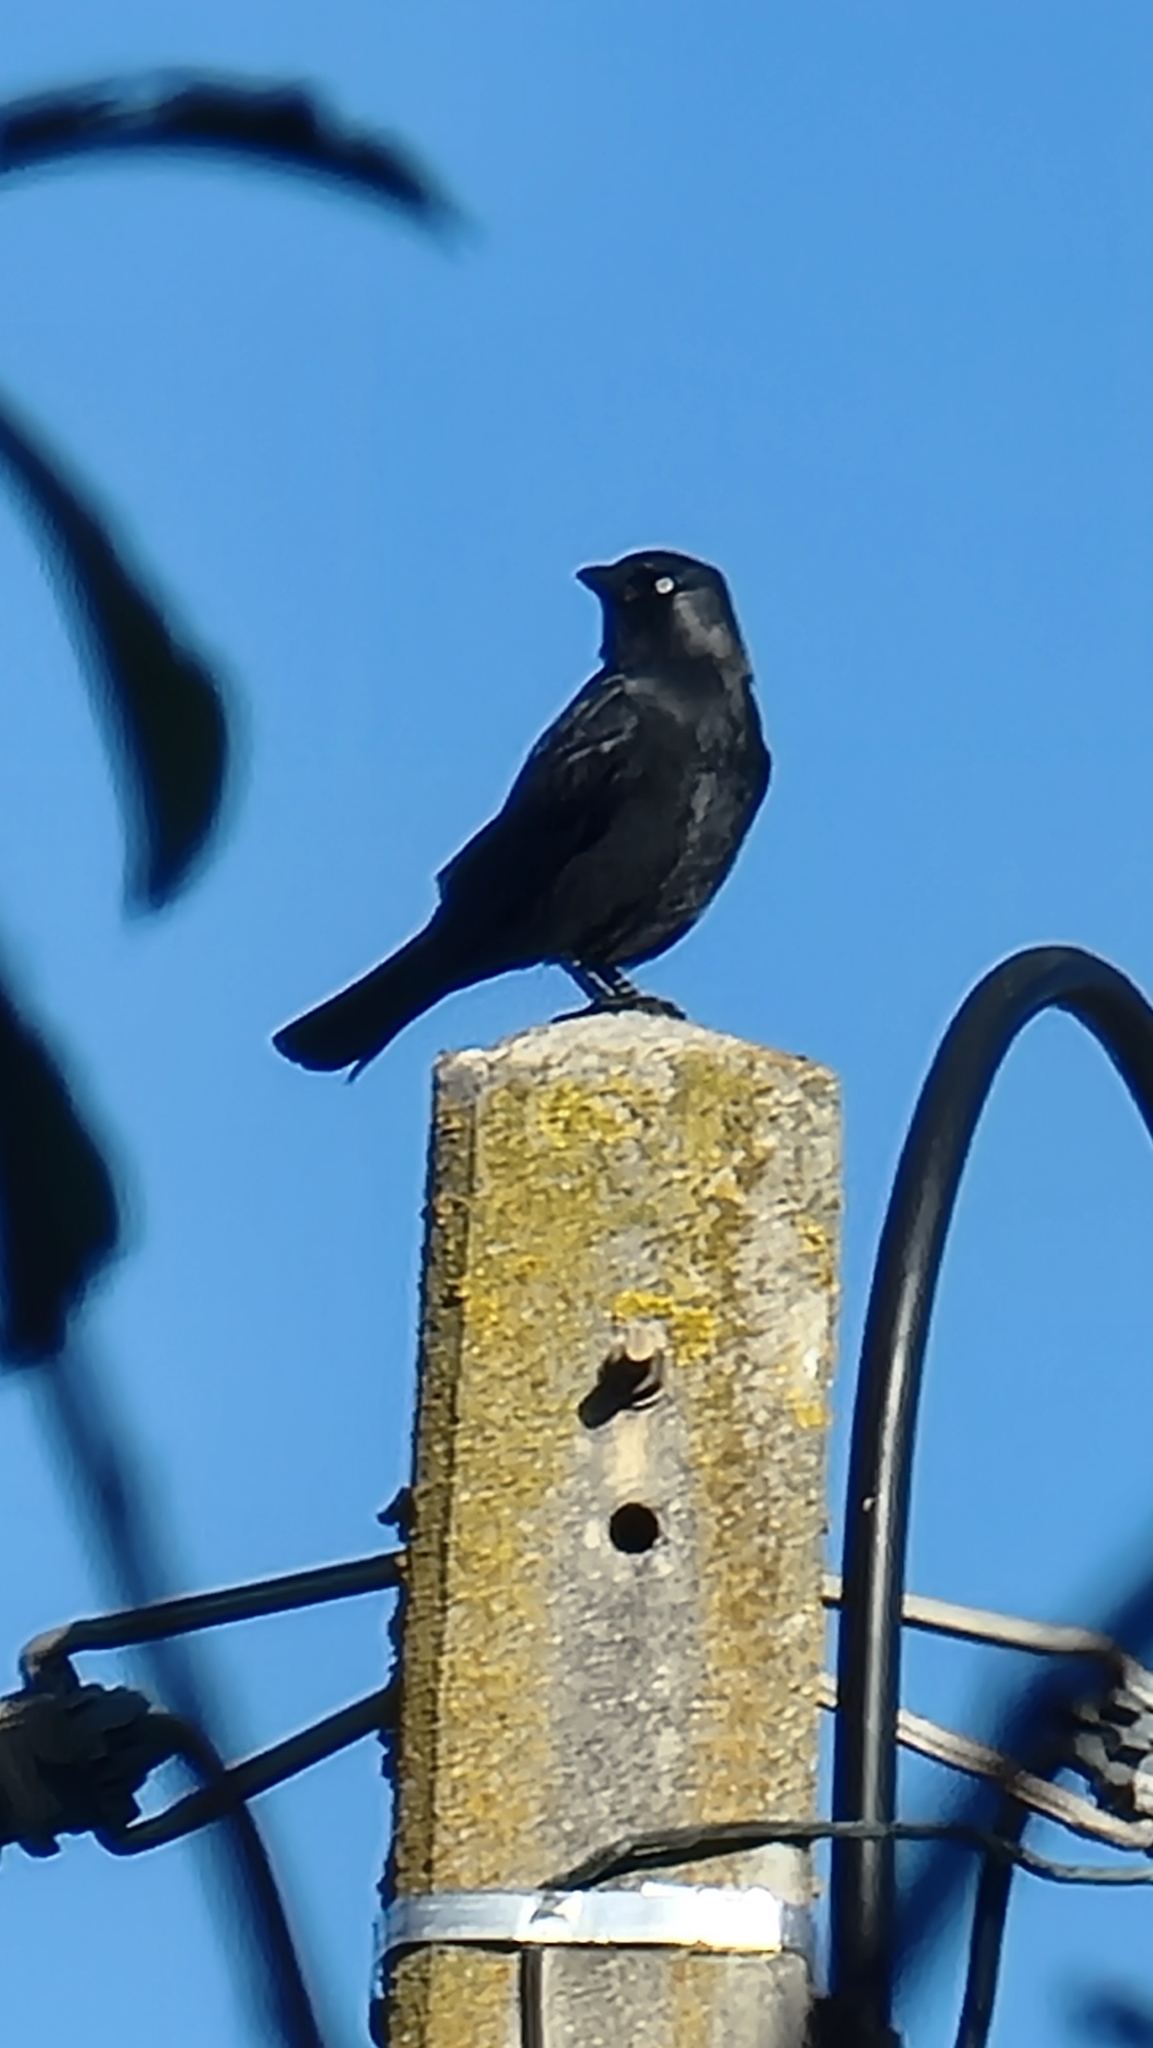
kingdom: Animalia
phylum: Chordata
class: Aves
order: Passeriformes
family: Corvidae
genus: Coloeus
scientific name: Coloeus monedula
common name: Western jackdaw
